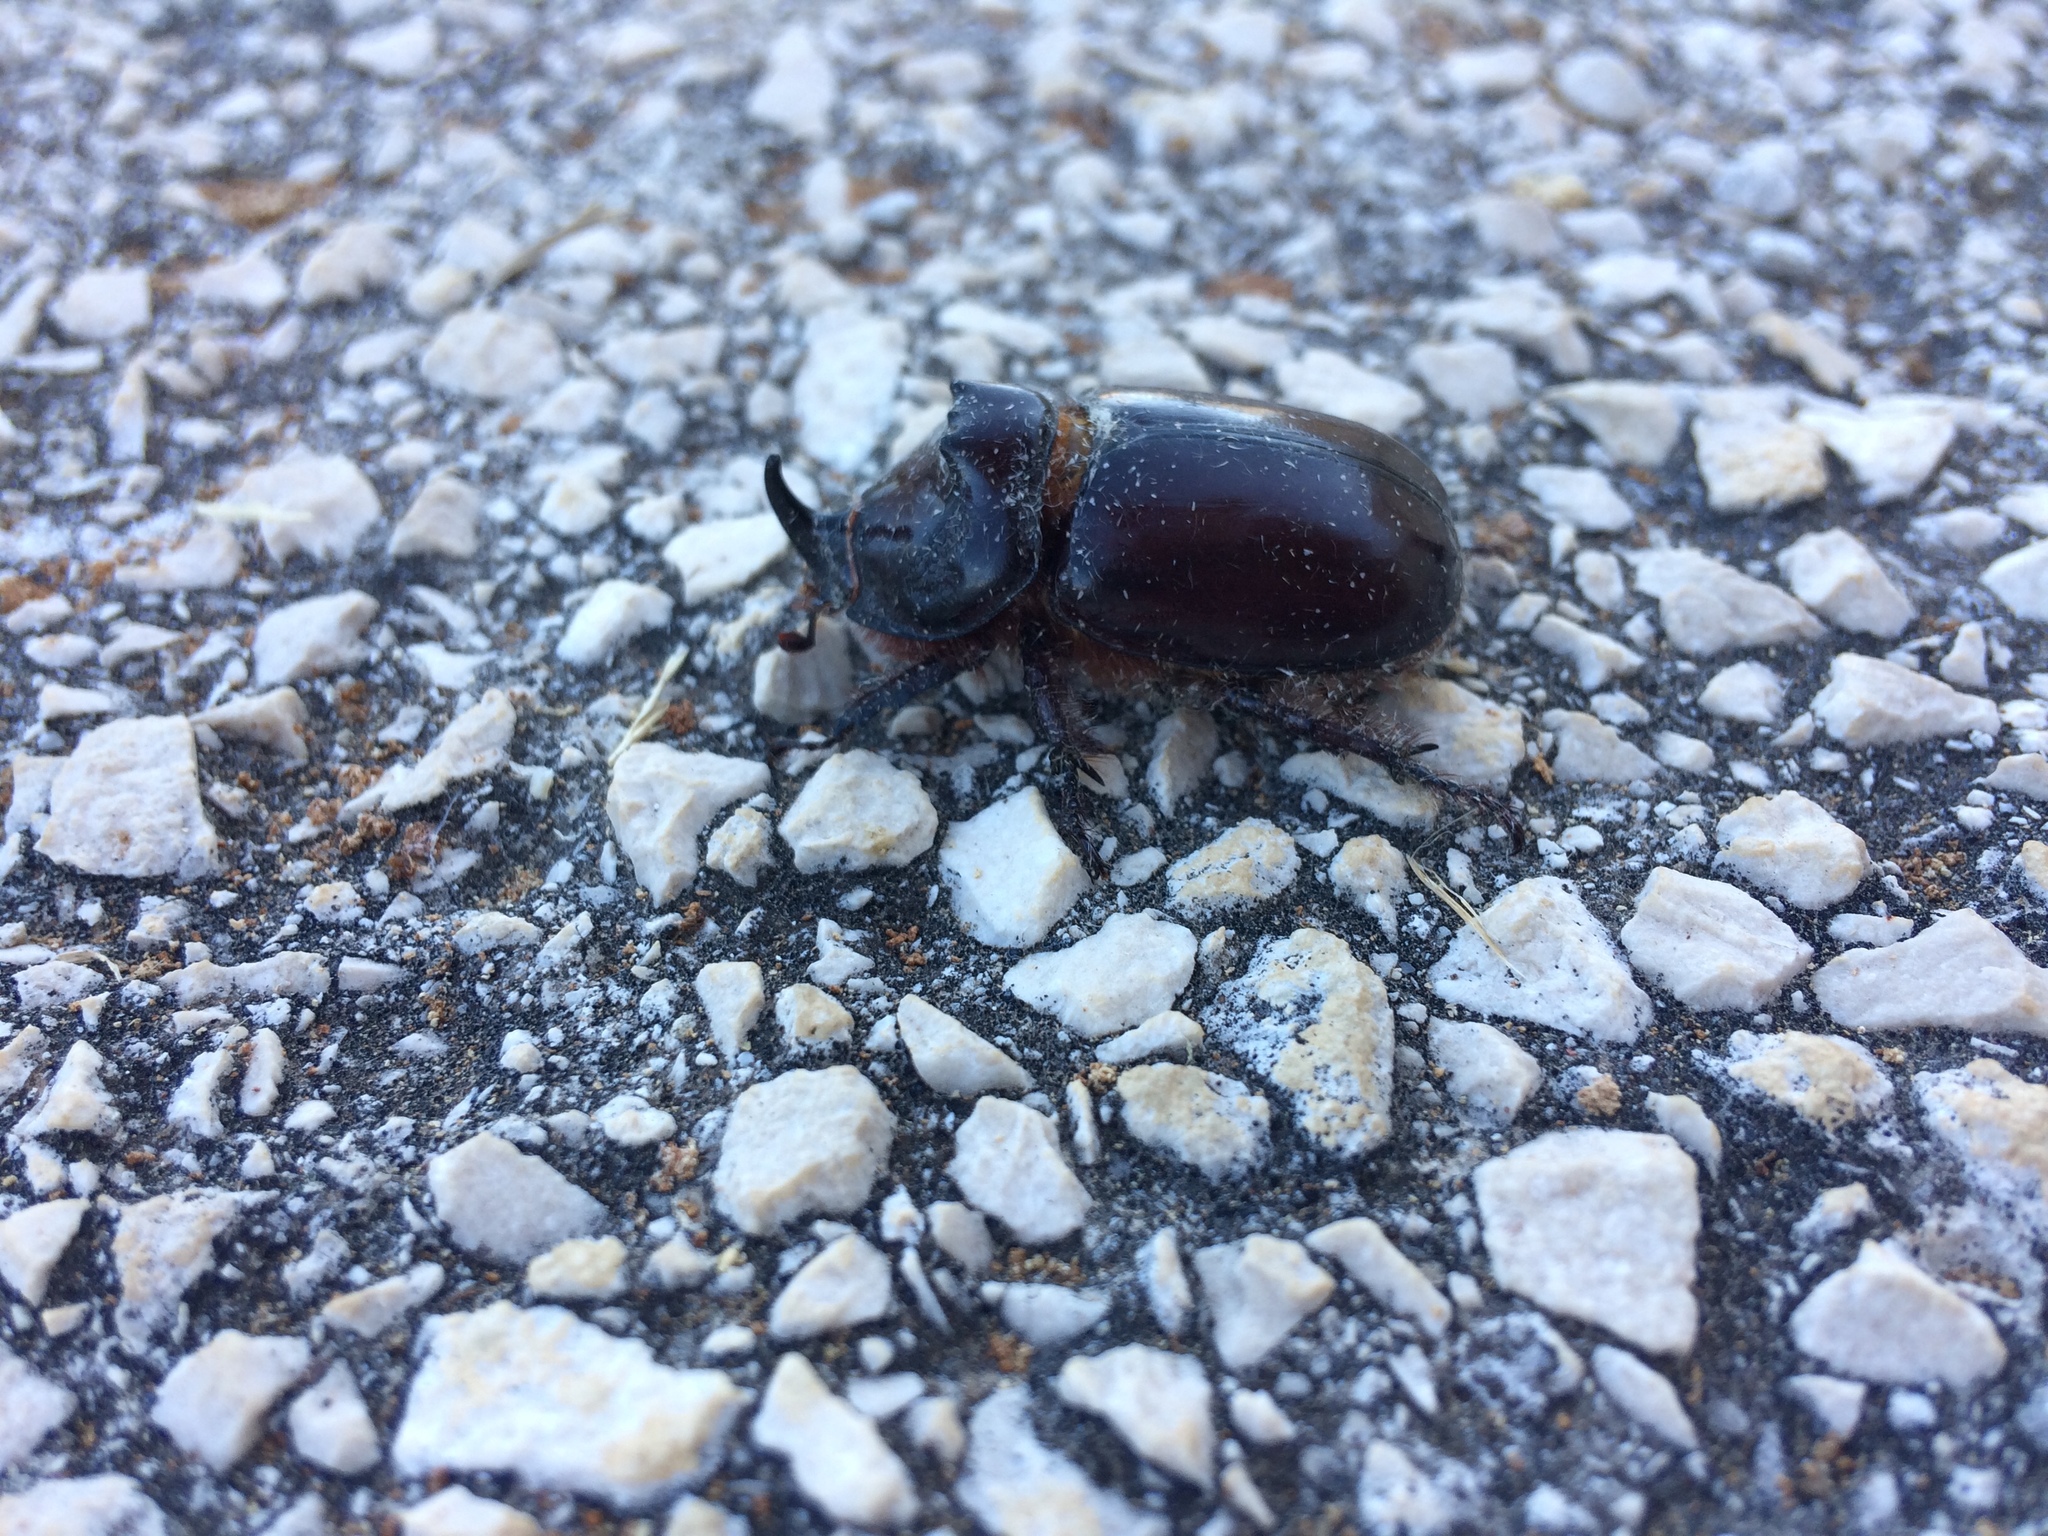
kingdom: Animalia
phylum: Arthropoda
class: Insecta
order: Coleoptera
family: Scarabaeidae
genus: Oryctes
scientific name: Oryctes nasicornis
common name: European rhinoceros beetle
